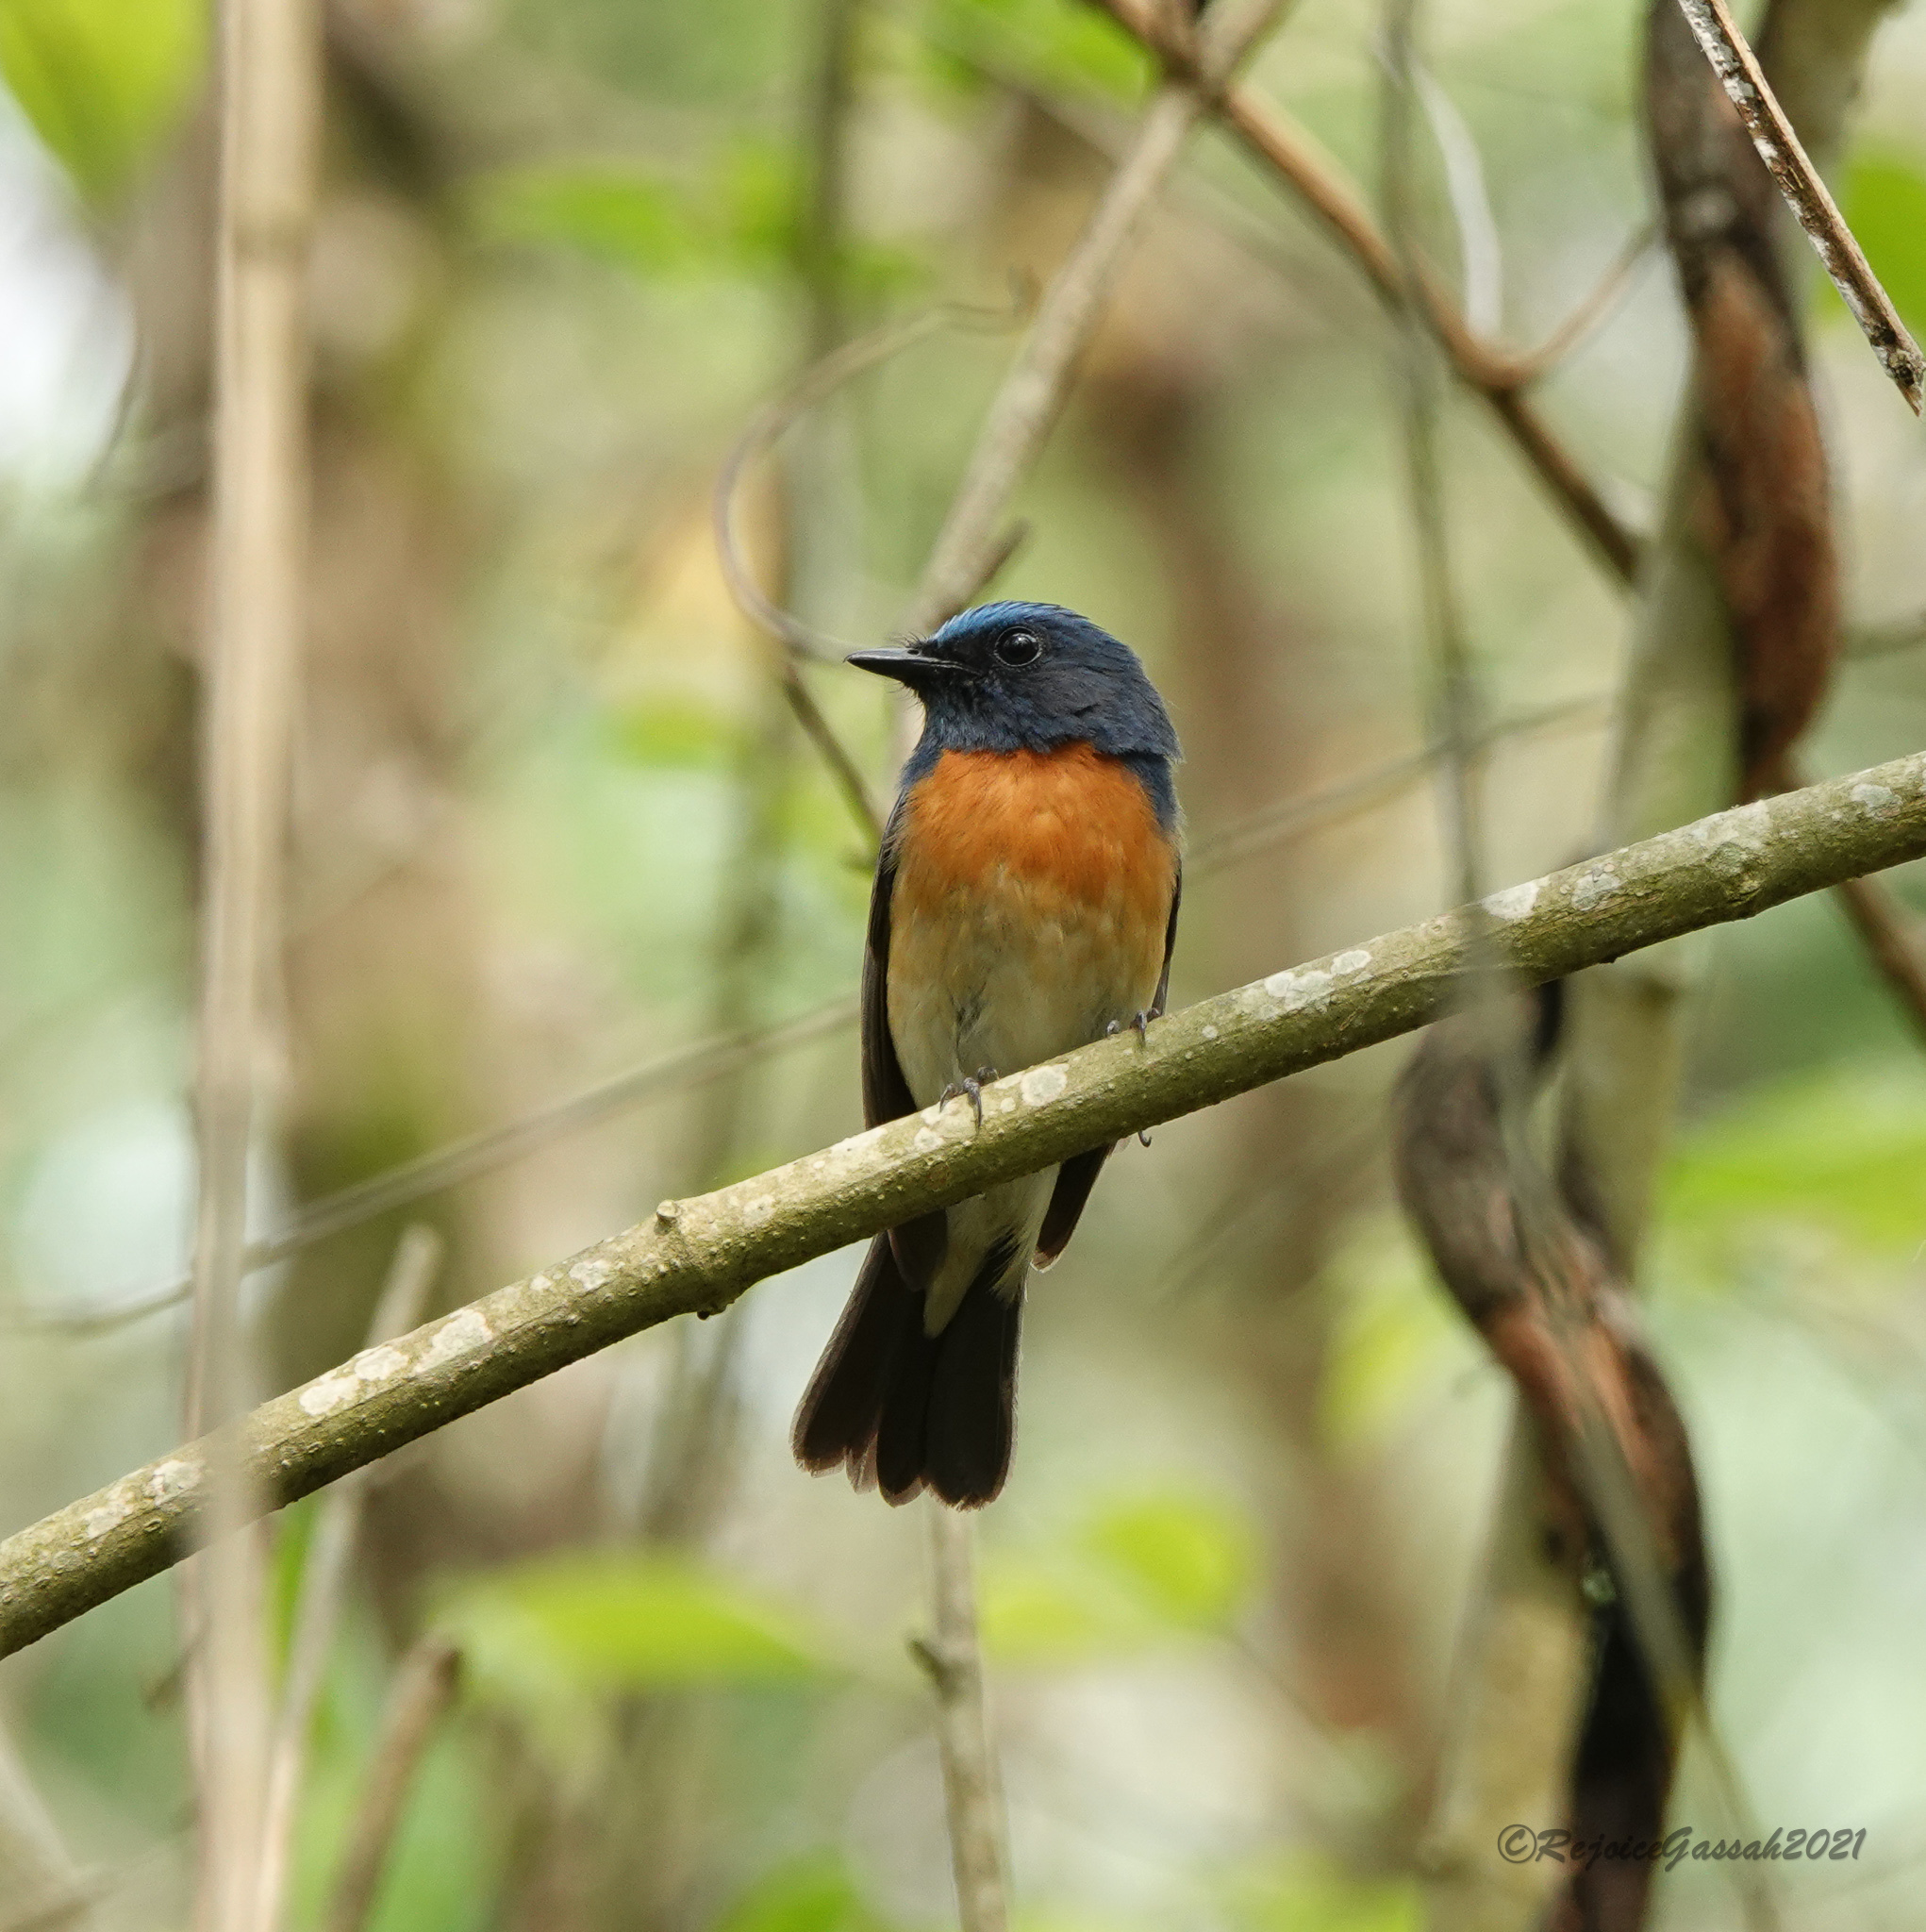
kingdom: Animalia
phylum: Chordata
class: Aves
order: Passeriformes
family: Muscicapidae
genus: Cyornis
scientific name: Cyornis rubeculoides
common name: Blue-throated blue flycatcher
